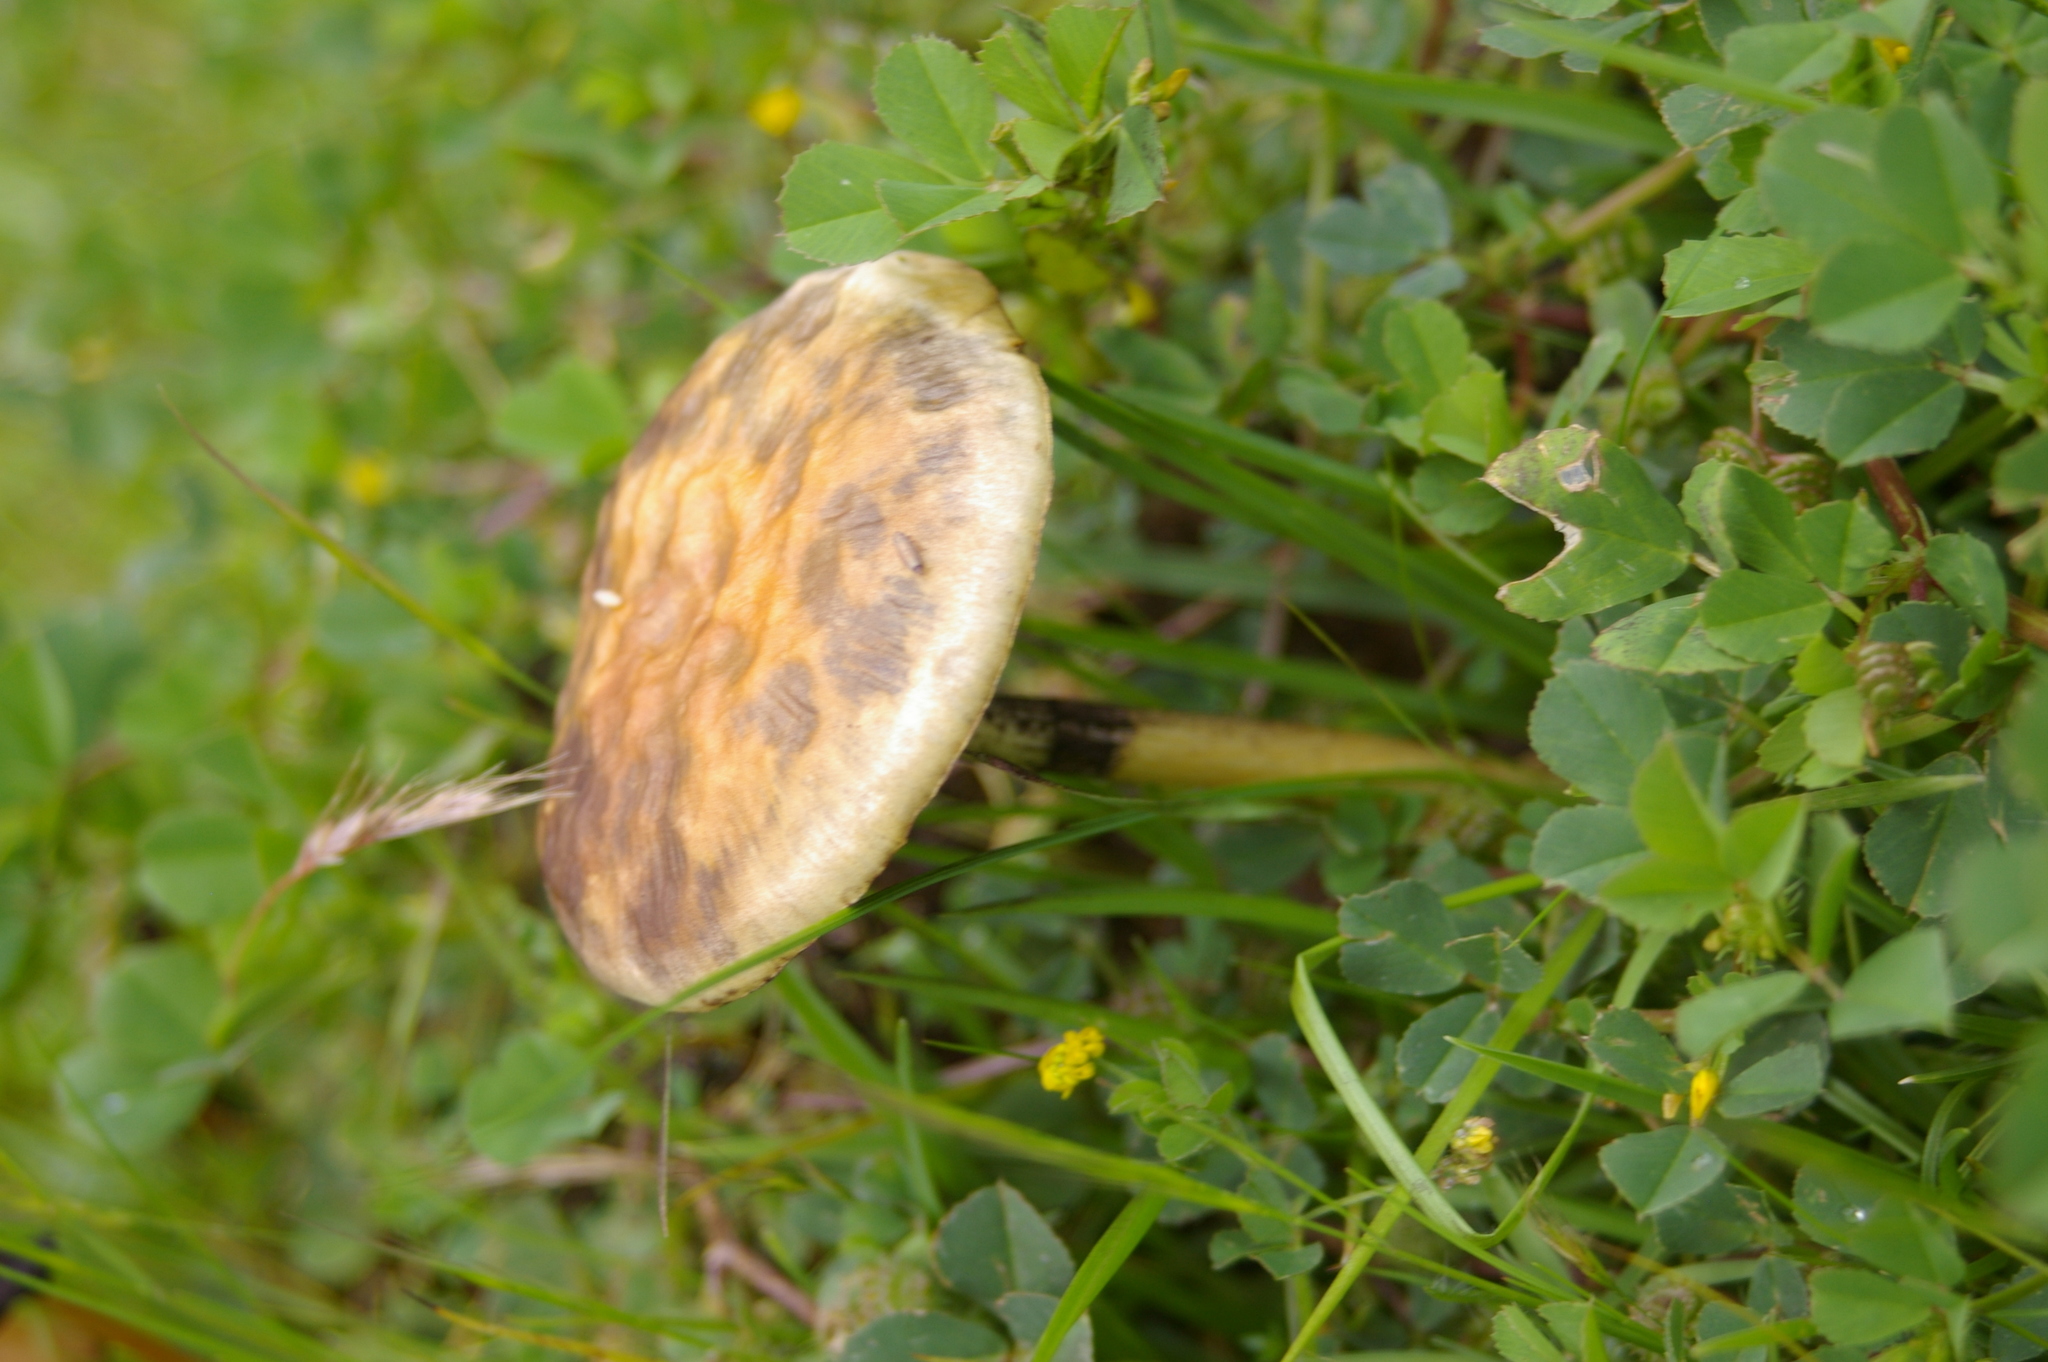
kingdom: Fungi
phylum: Basidiomycota
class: Agaricomycetes
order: Agaricales
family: Hymenogastraceae
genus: Psilocybe
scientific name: Psilocybe cubensis
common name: Golden brownie
